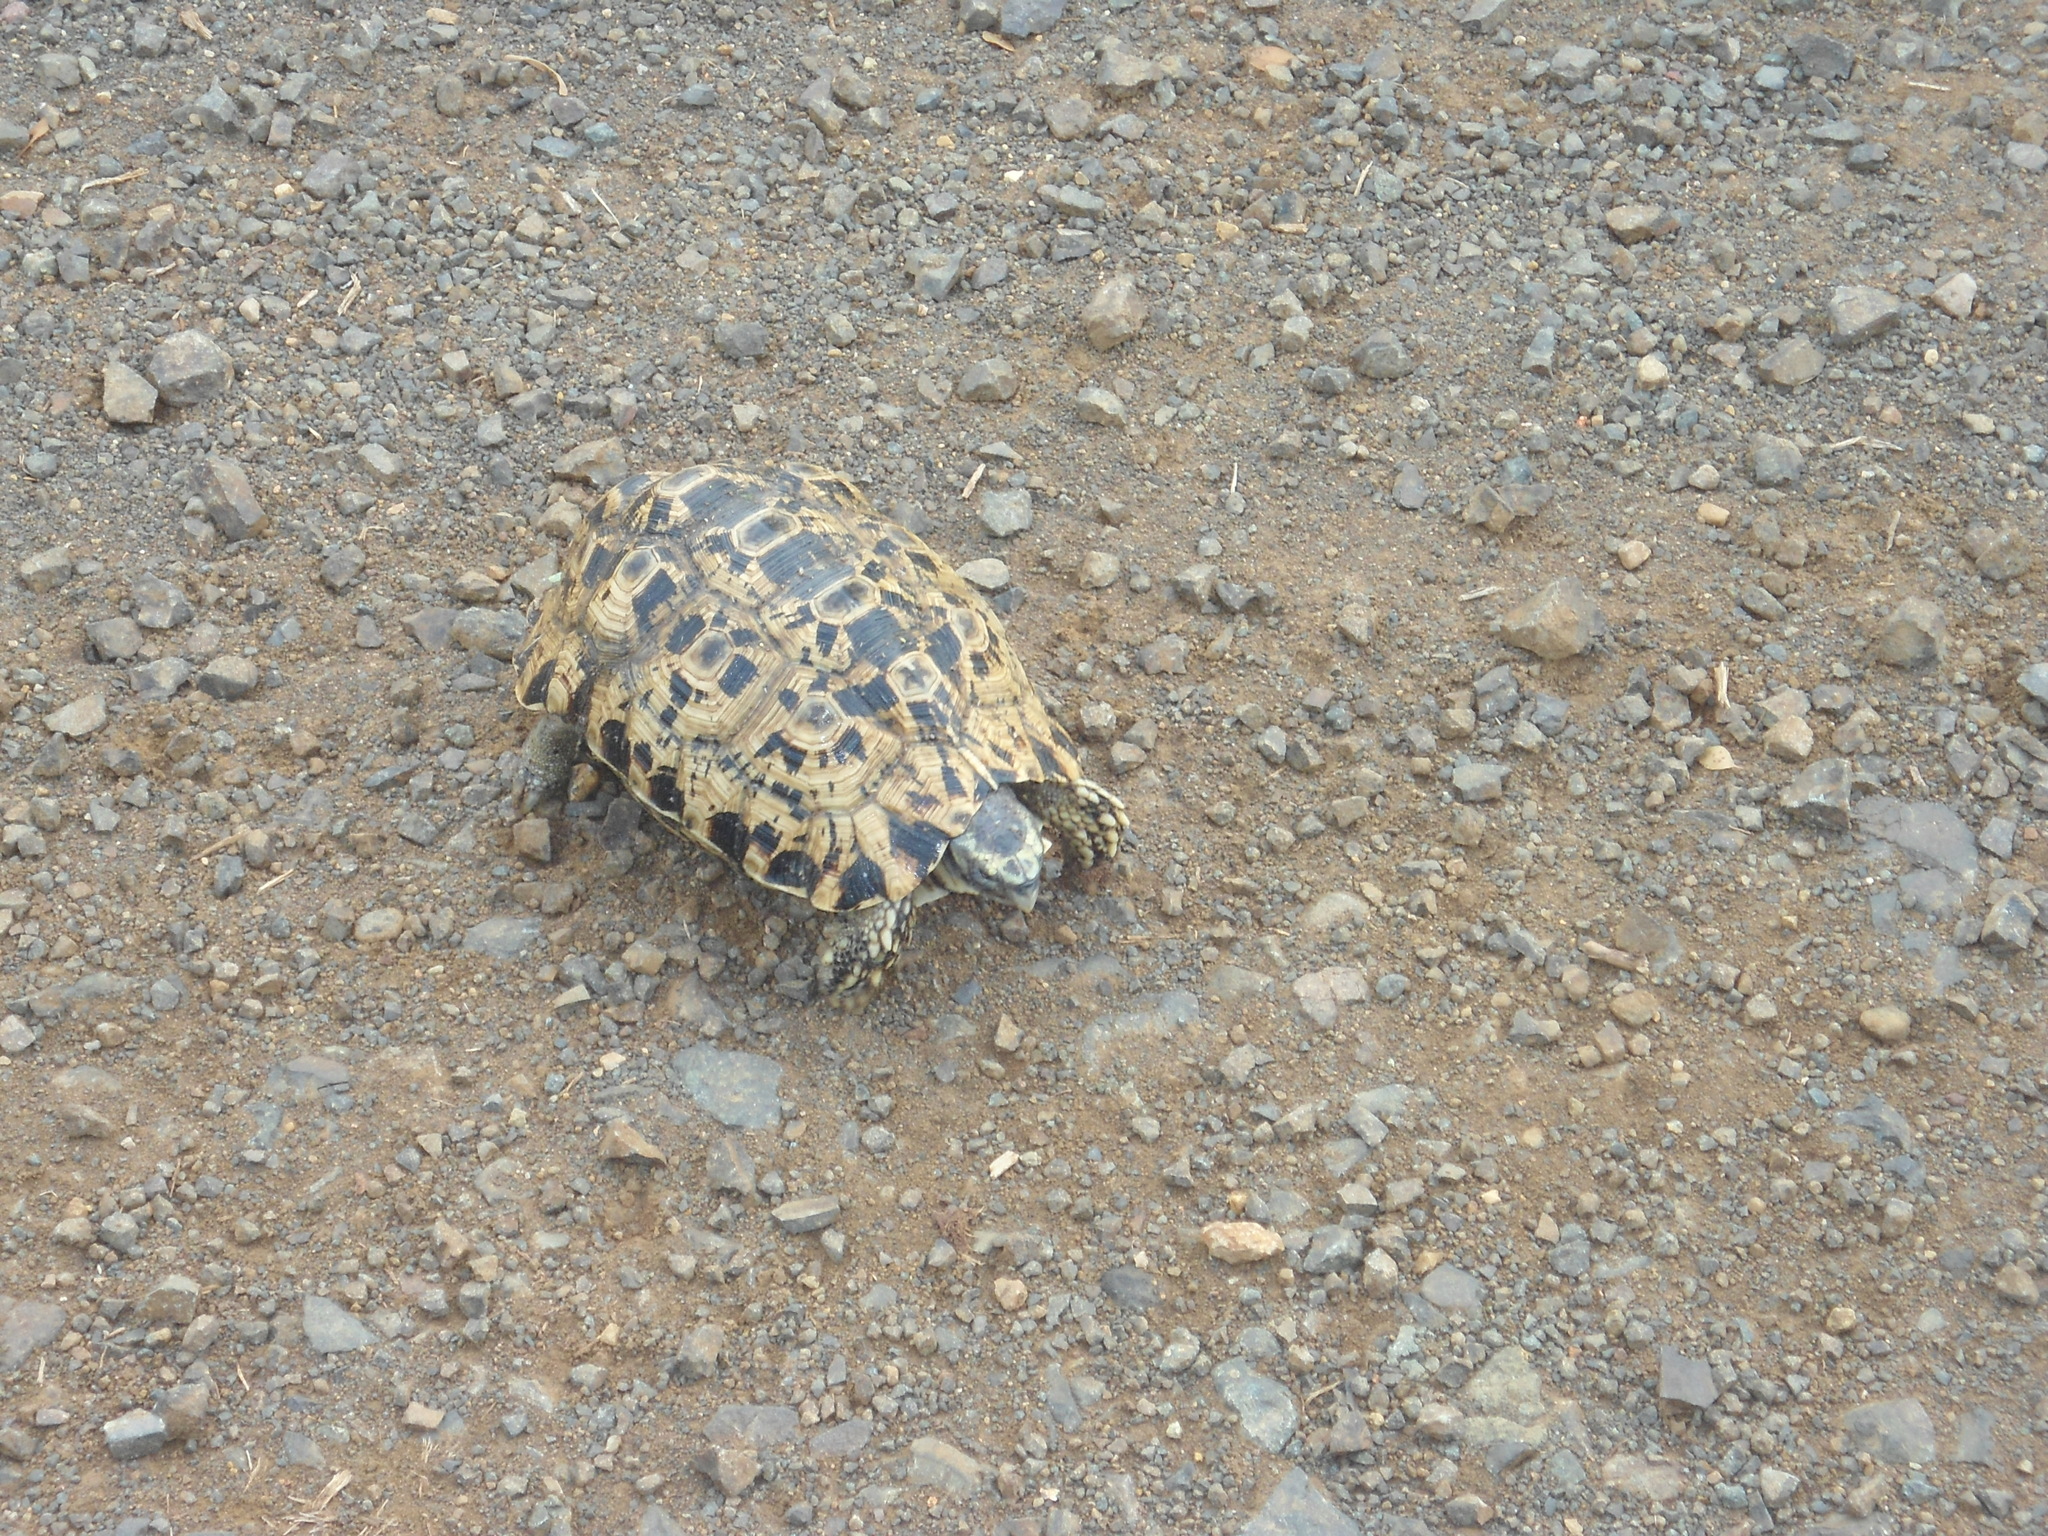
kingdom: Animalia
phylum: Chordata
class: Testudines
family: Testudinidae
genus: Kinixys
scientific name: Kinixys zombensis
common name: Southeastern hinge-back tortoise
